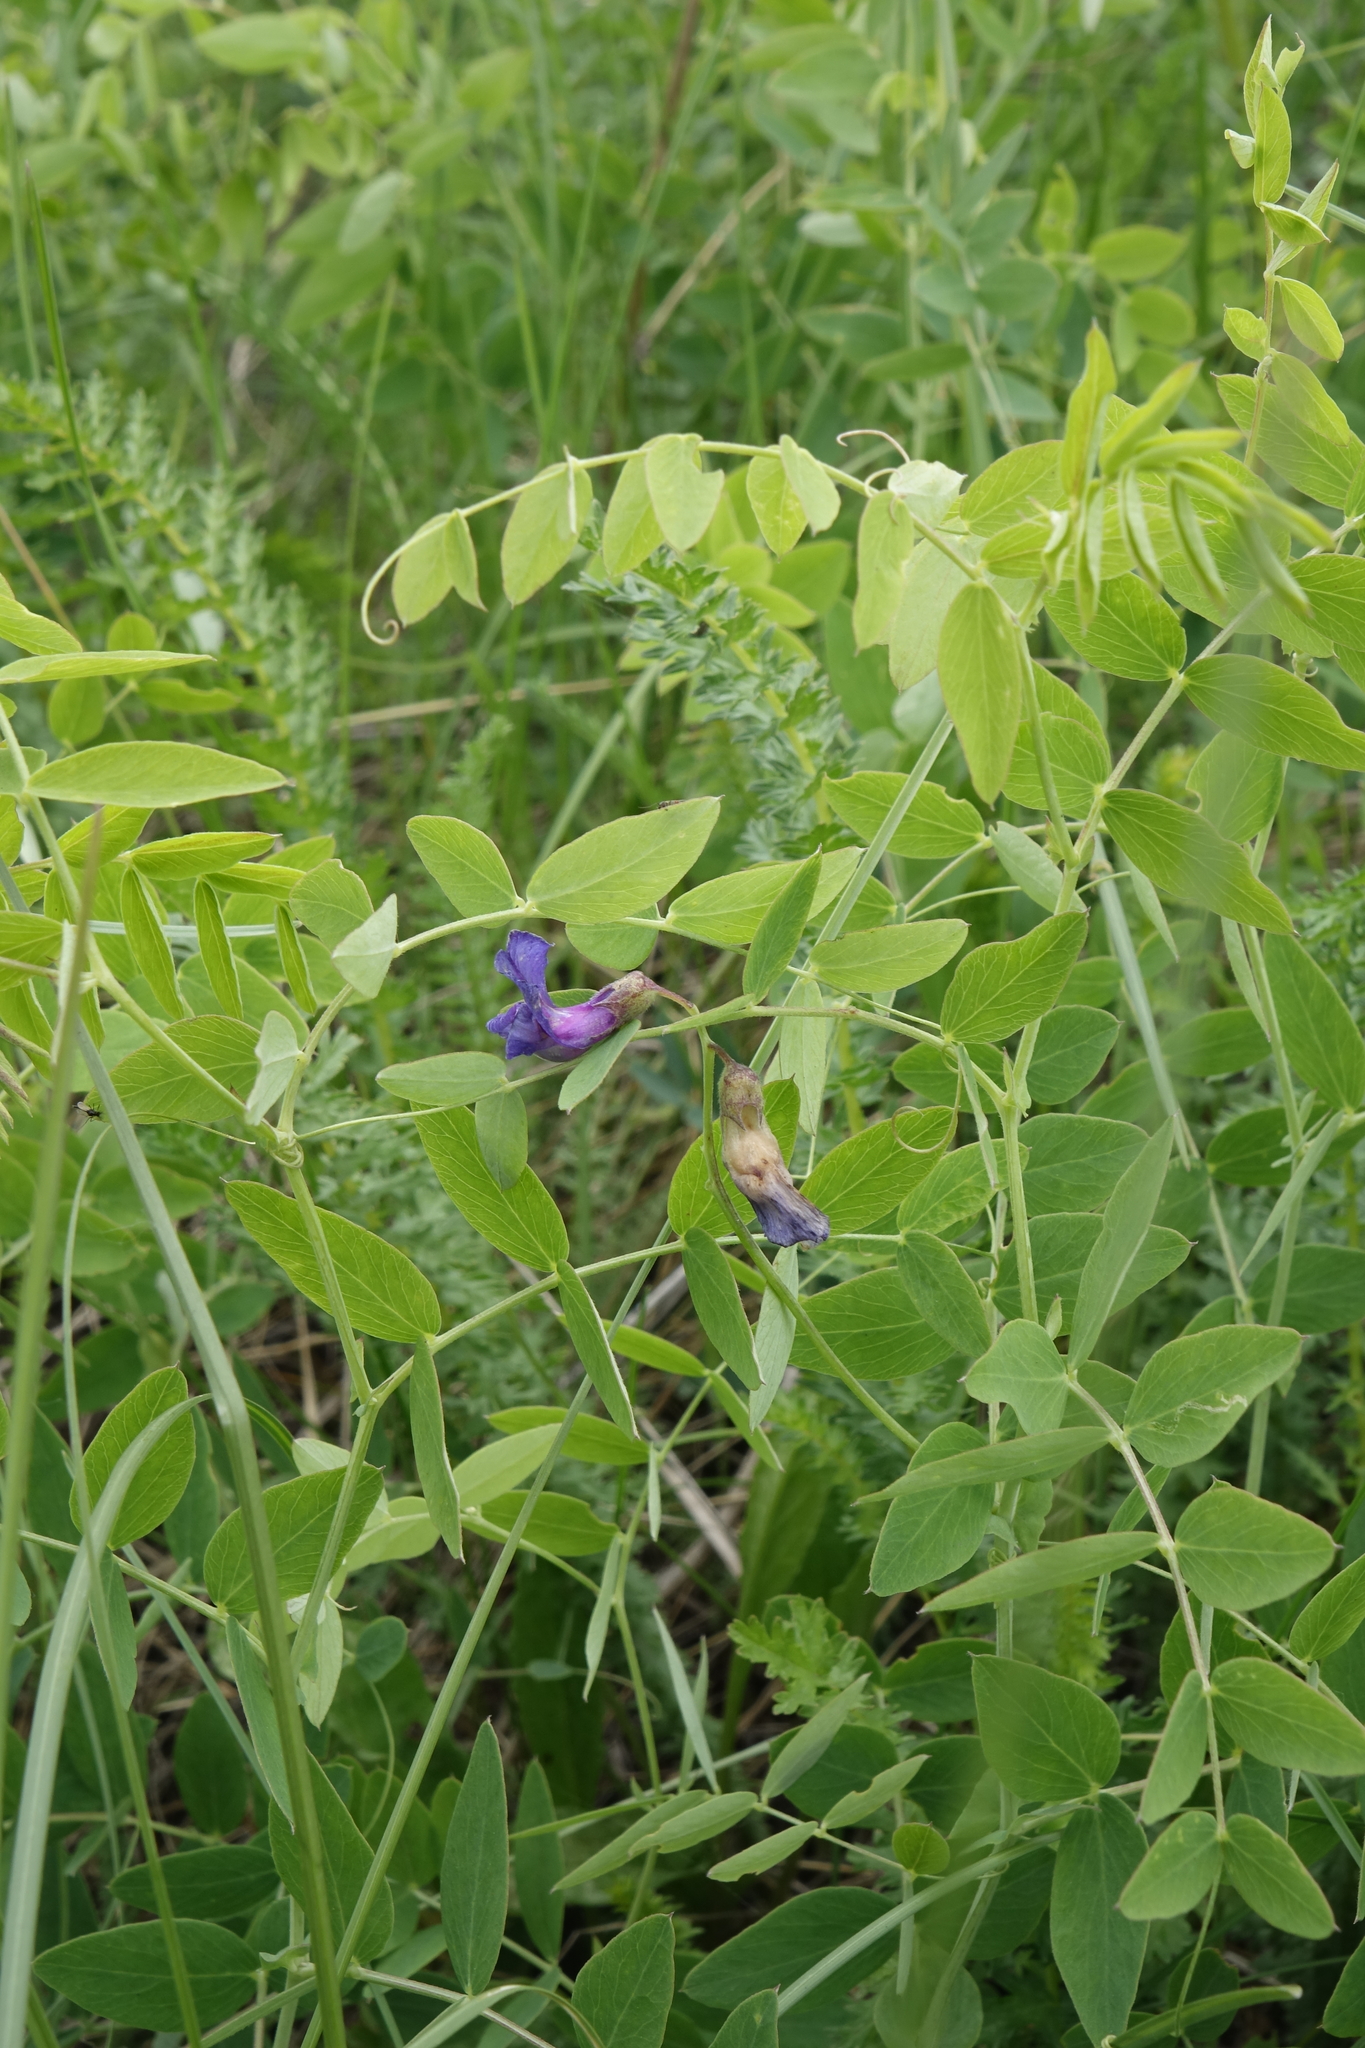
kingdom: Plantae
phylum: Tracheophyta
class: Magnoliopsida
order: Fabales
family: Fabaceae
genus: Lathyrus
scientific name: Lathyrus humilis
